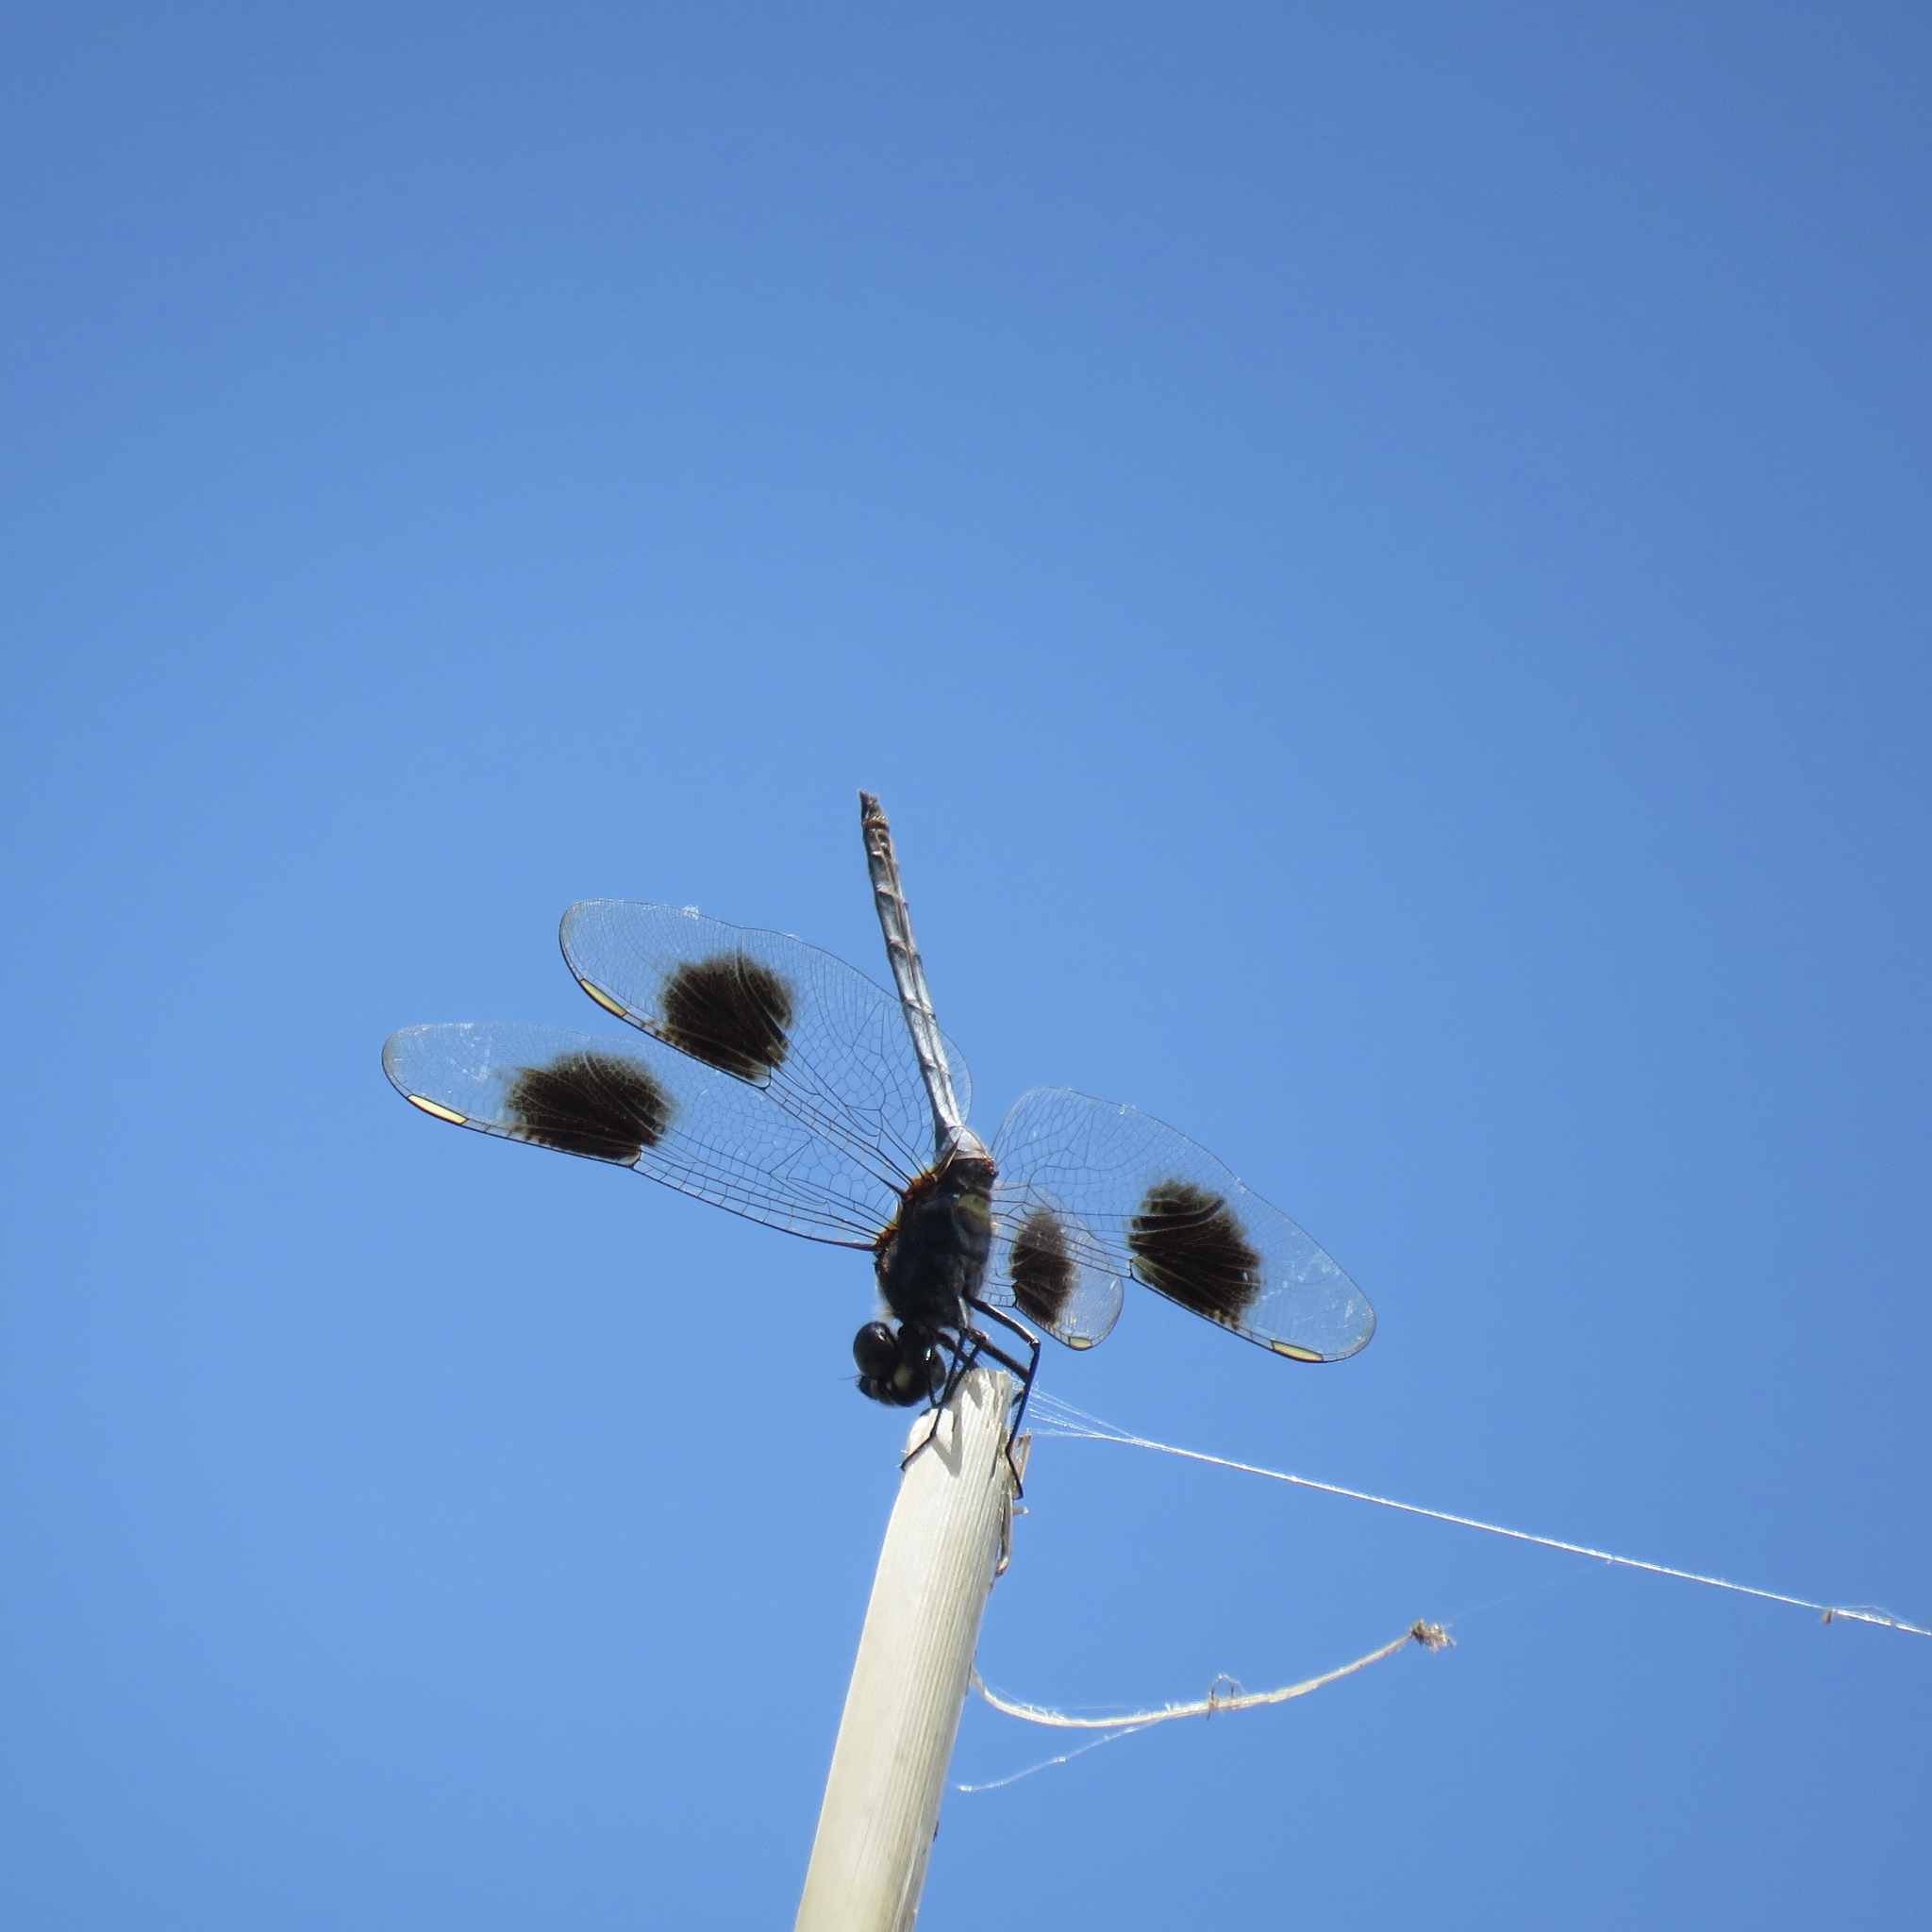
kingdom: Animalia
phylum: Arthropoda
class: Insecta
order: Odonata
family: Libellulidae
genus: Brachymesia
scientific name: Brachymesia gravida
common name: Four-spotted pennant
